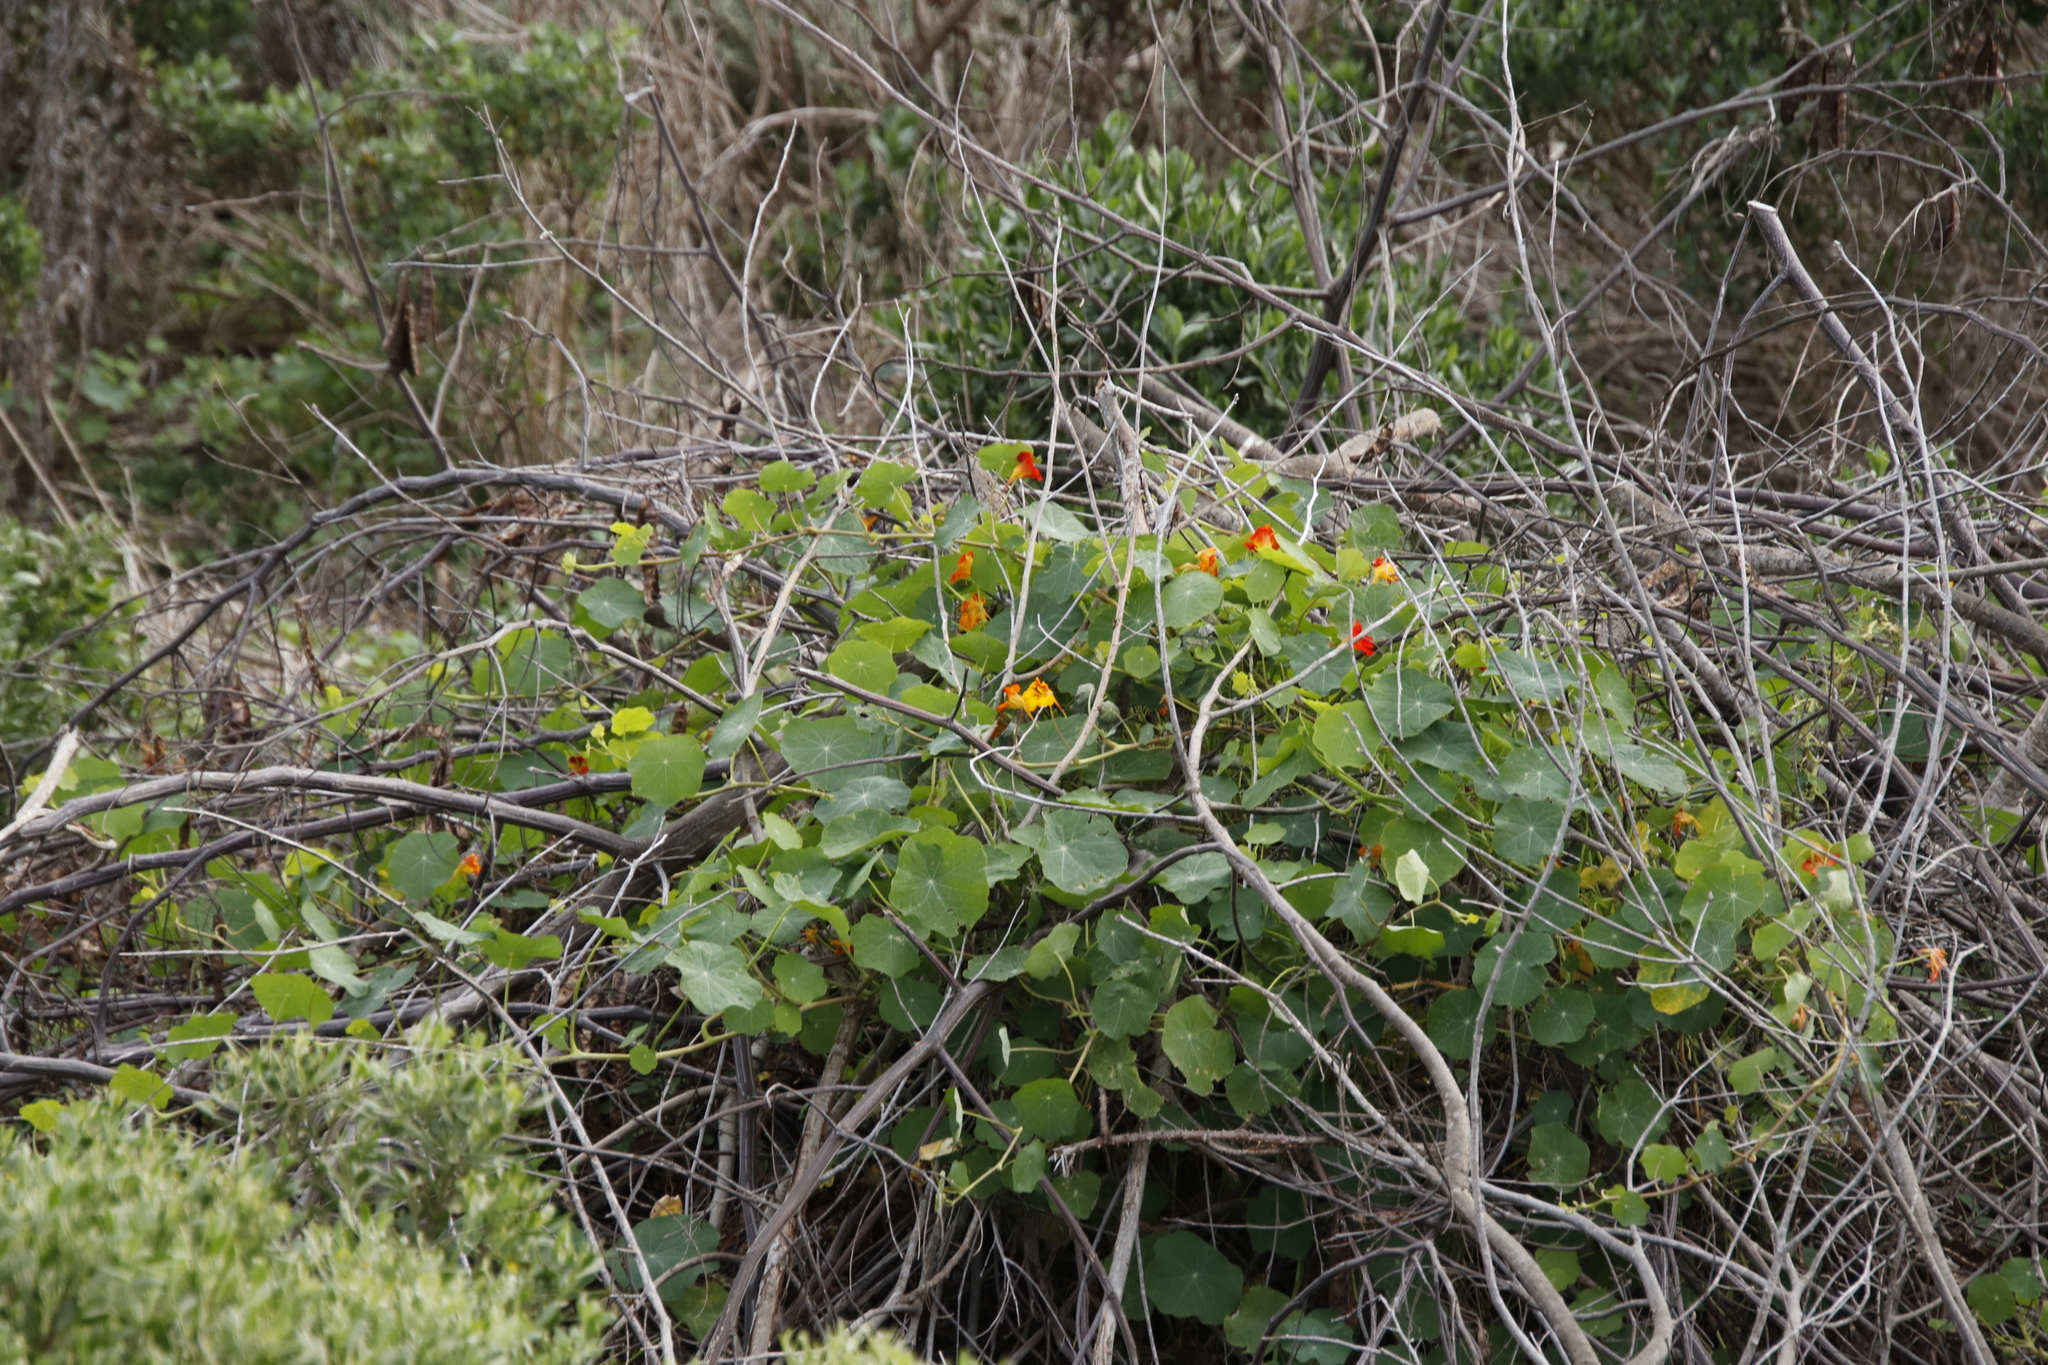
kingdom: Plantae
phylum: Tracheophyta
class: Magnoliopsida
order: Brassicales
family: Tropaeolaceae
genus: Tropaeolum
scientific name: Tropaeolum majus
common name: Nasturtium
